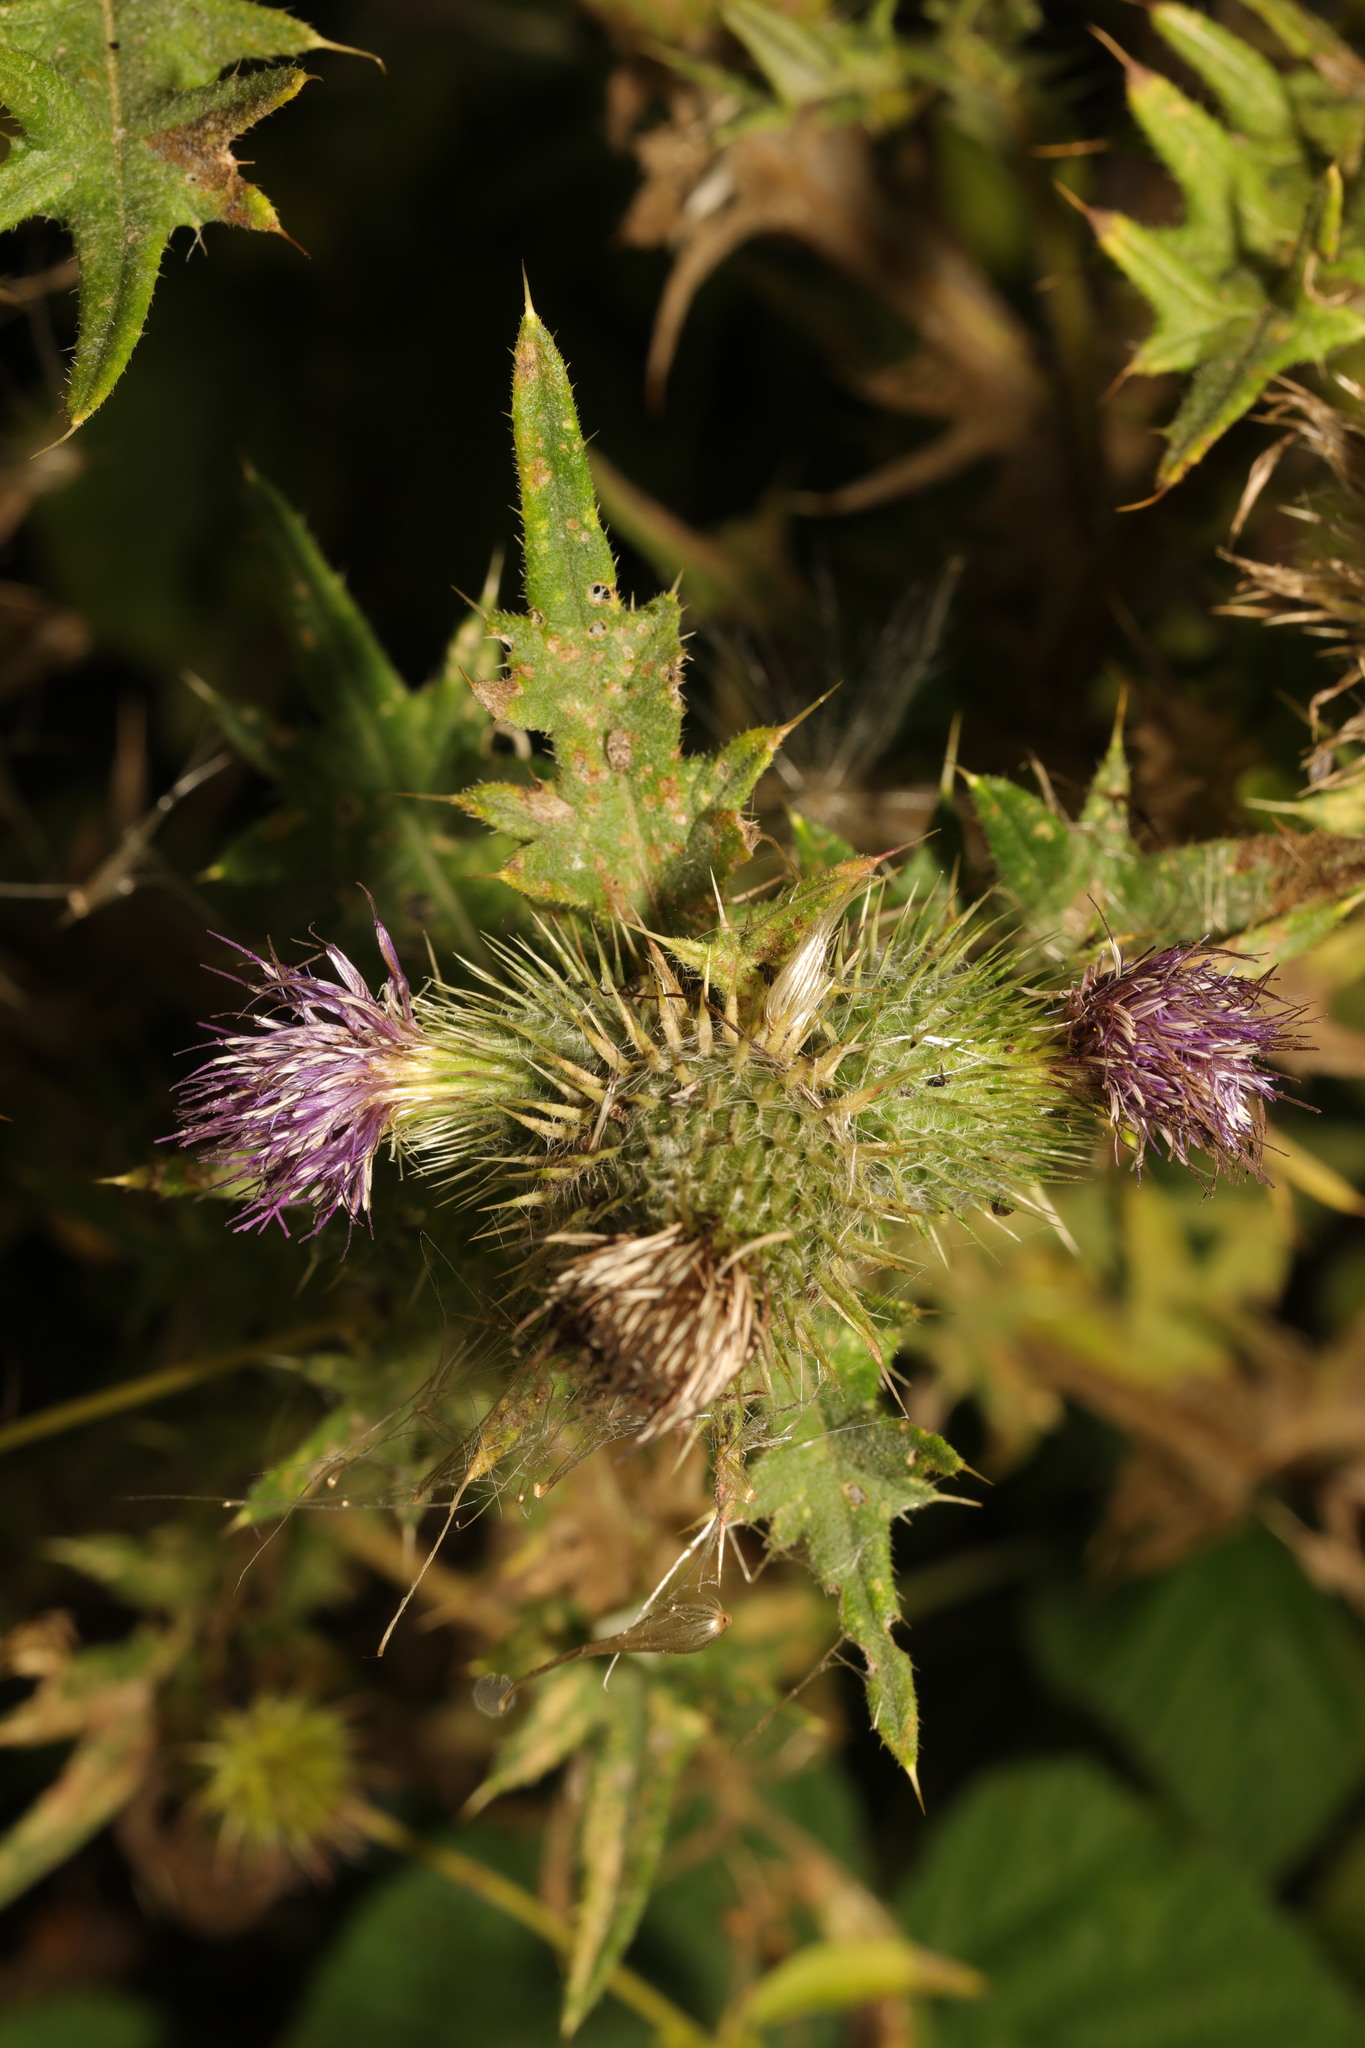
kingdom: Plantae
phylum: Tracheophyta
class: Magnoliopsida
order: Asterales
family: Asteraceae
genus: Cirsium
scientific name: Cirsium vulgare
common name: Bull thistle
